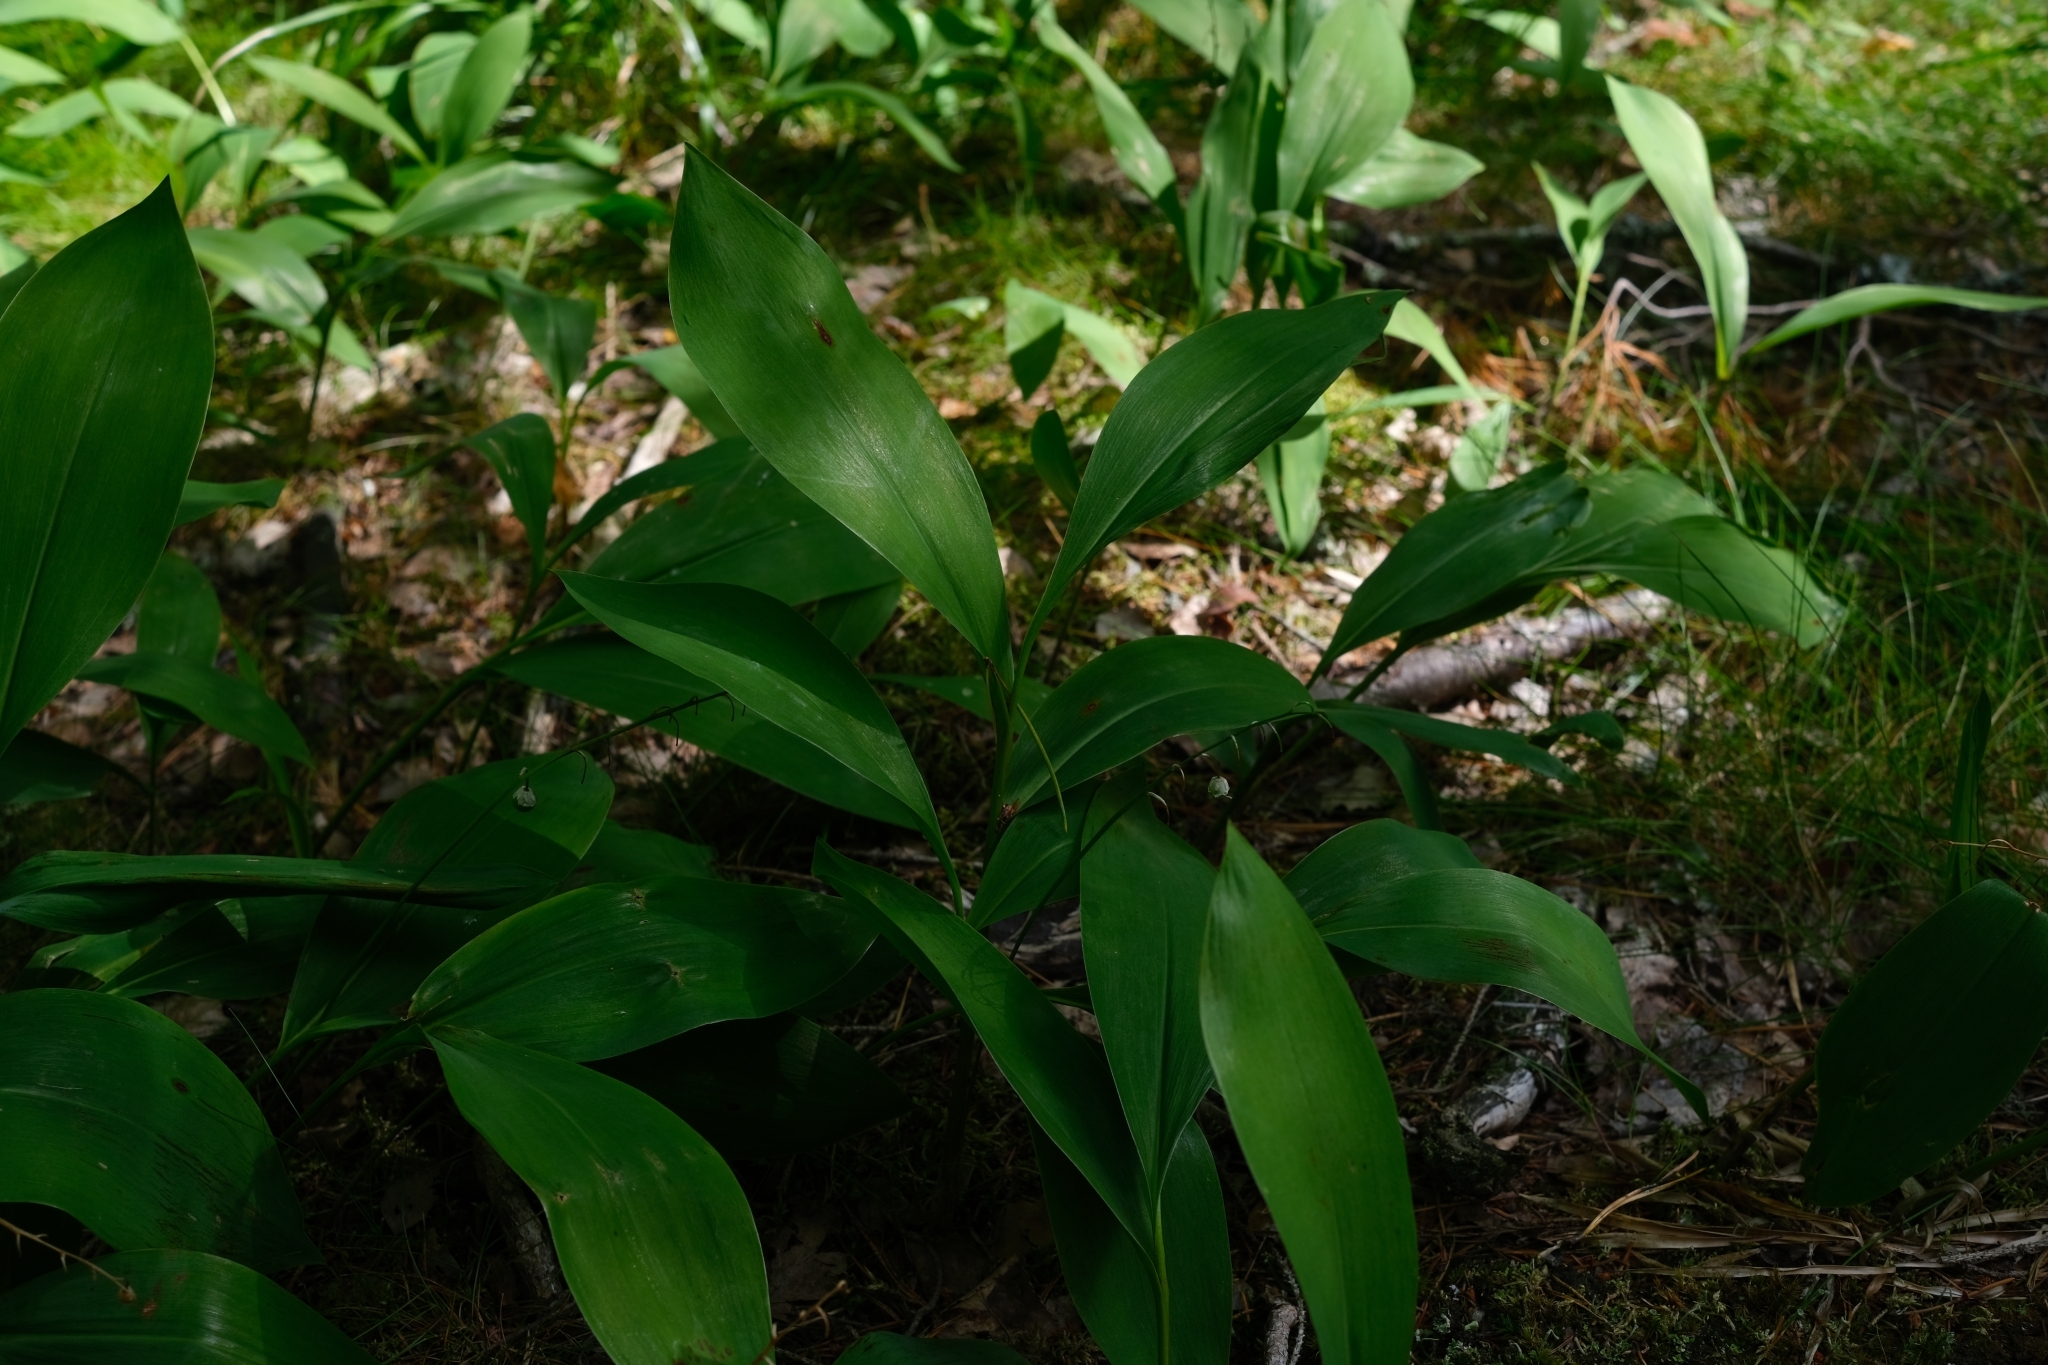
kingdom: Plantae
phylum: Tracheophyta
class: Liliopsida
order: Asparagales
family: Asparagaceae
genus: Convallaria
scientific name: Convallaria majalis
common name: Lily-of-the-valley
